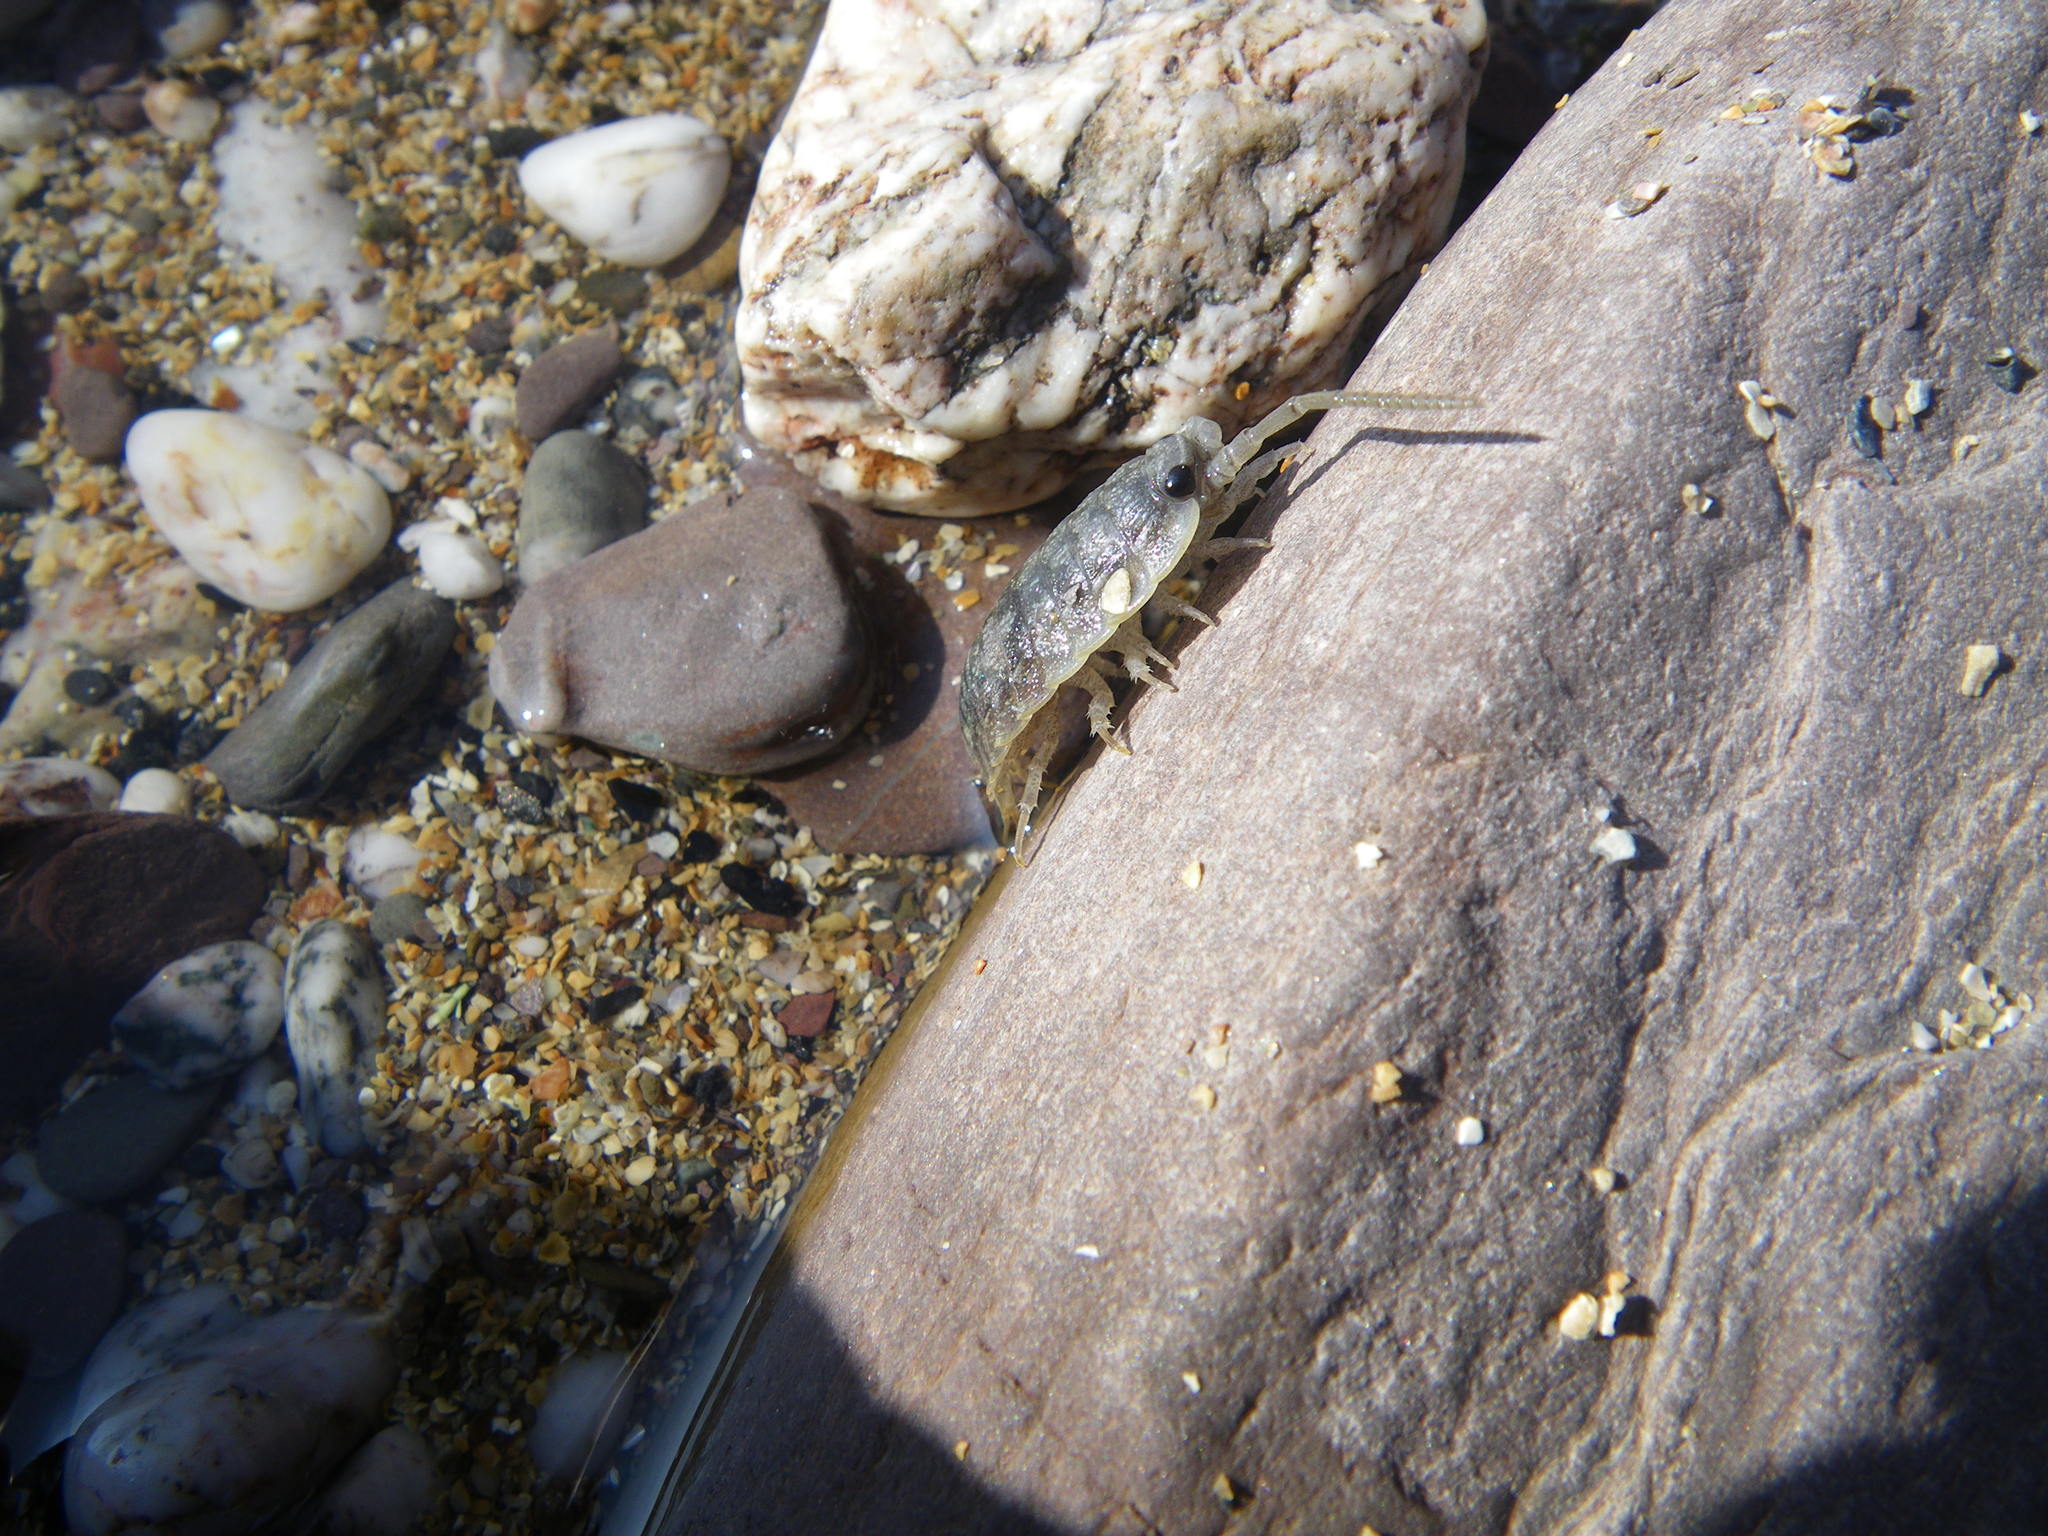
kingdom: Animalia
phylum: Arthropoda
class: Malacostraca
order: Isopoda
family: Ligiidae
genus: Ligia
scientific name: Ligia oceanica
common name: Sea slater
